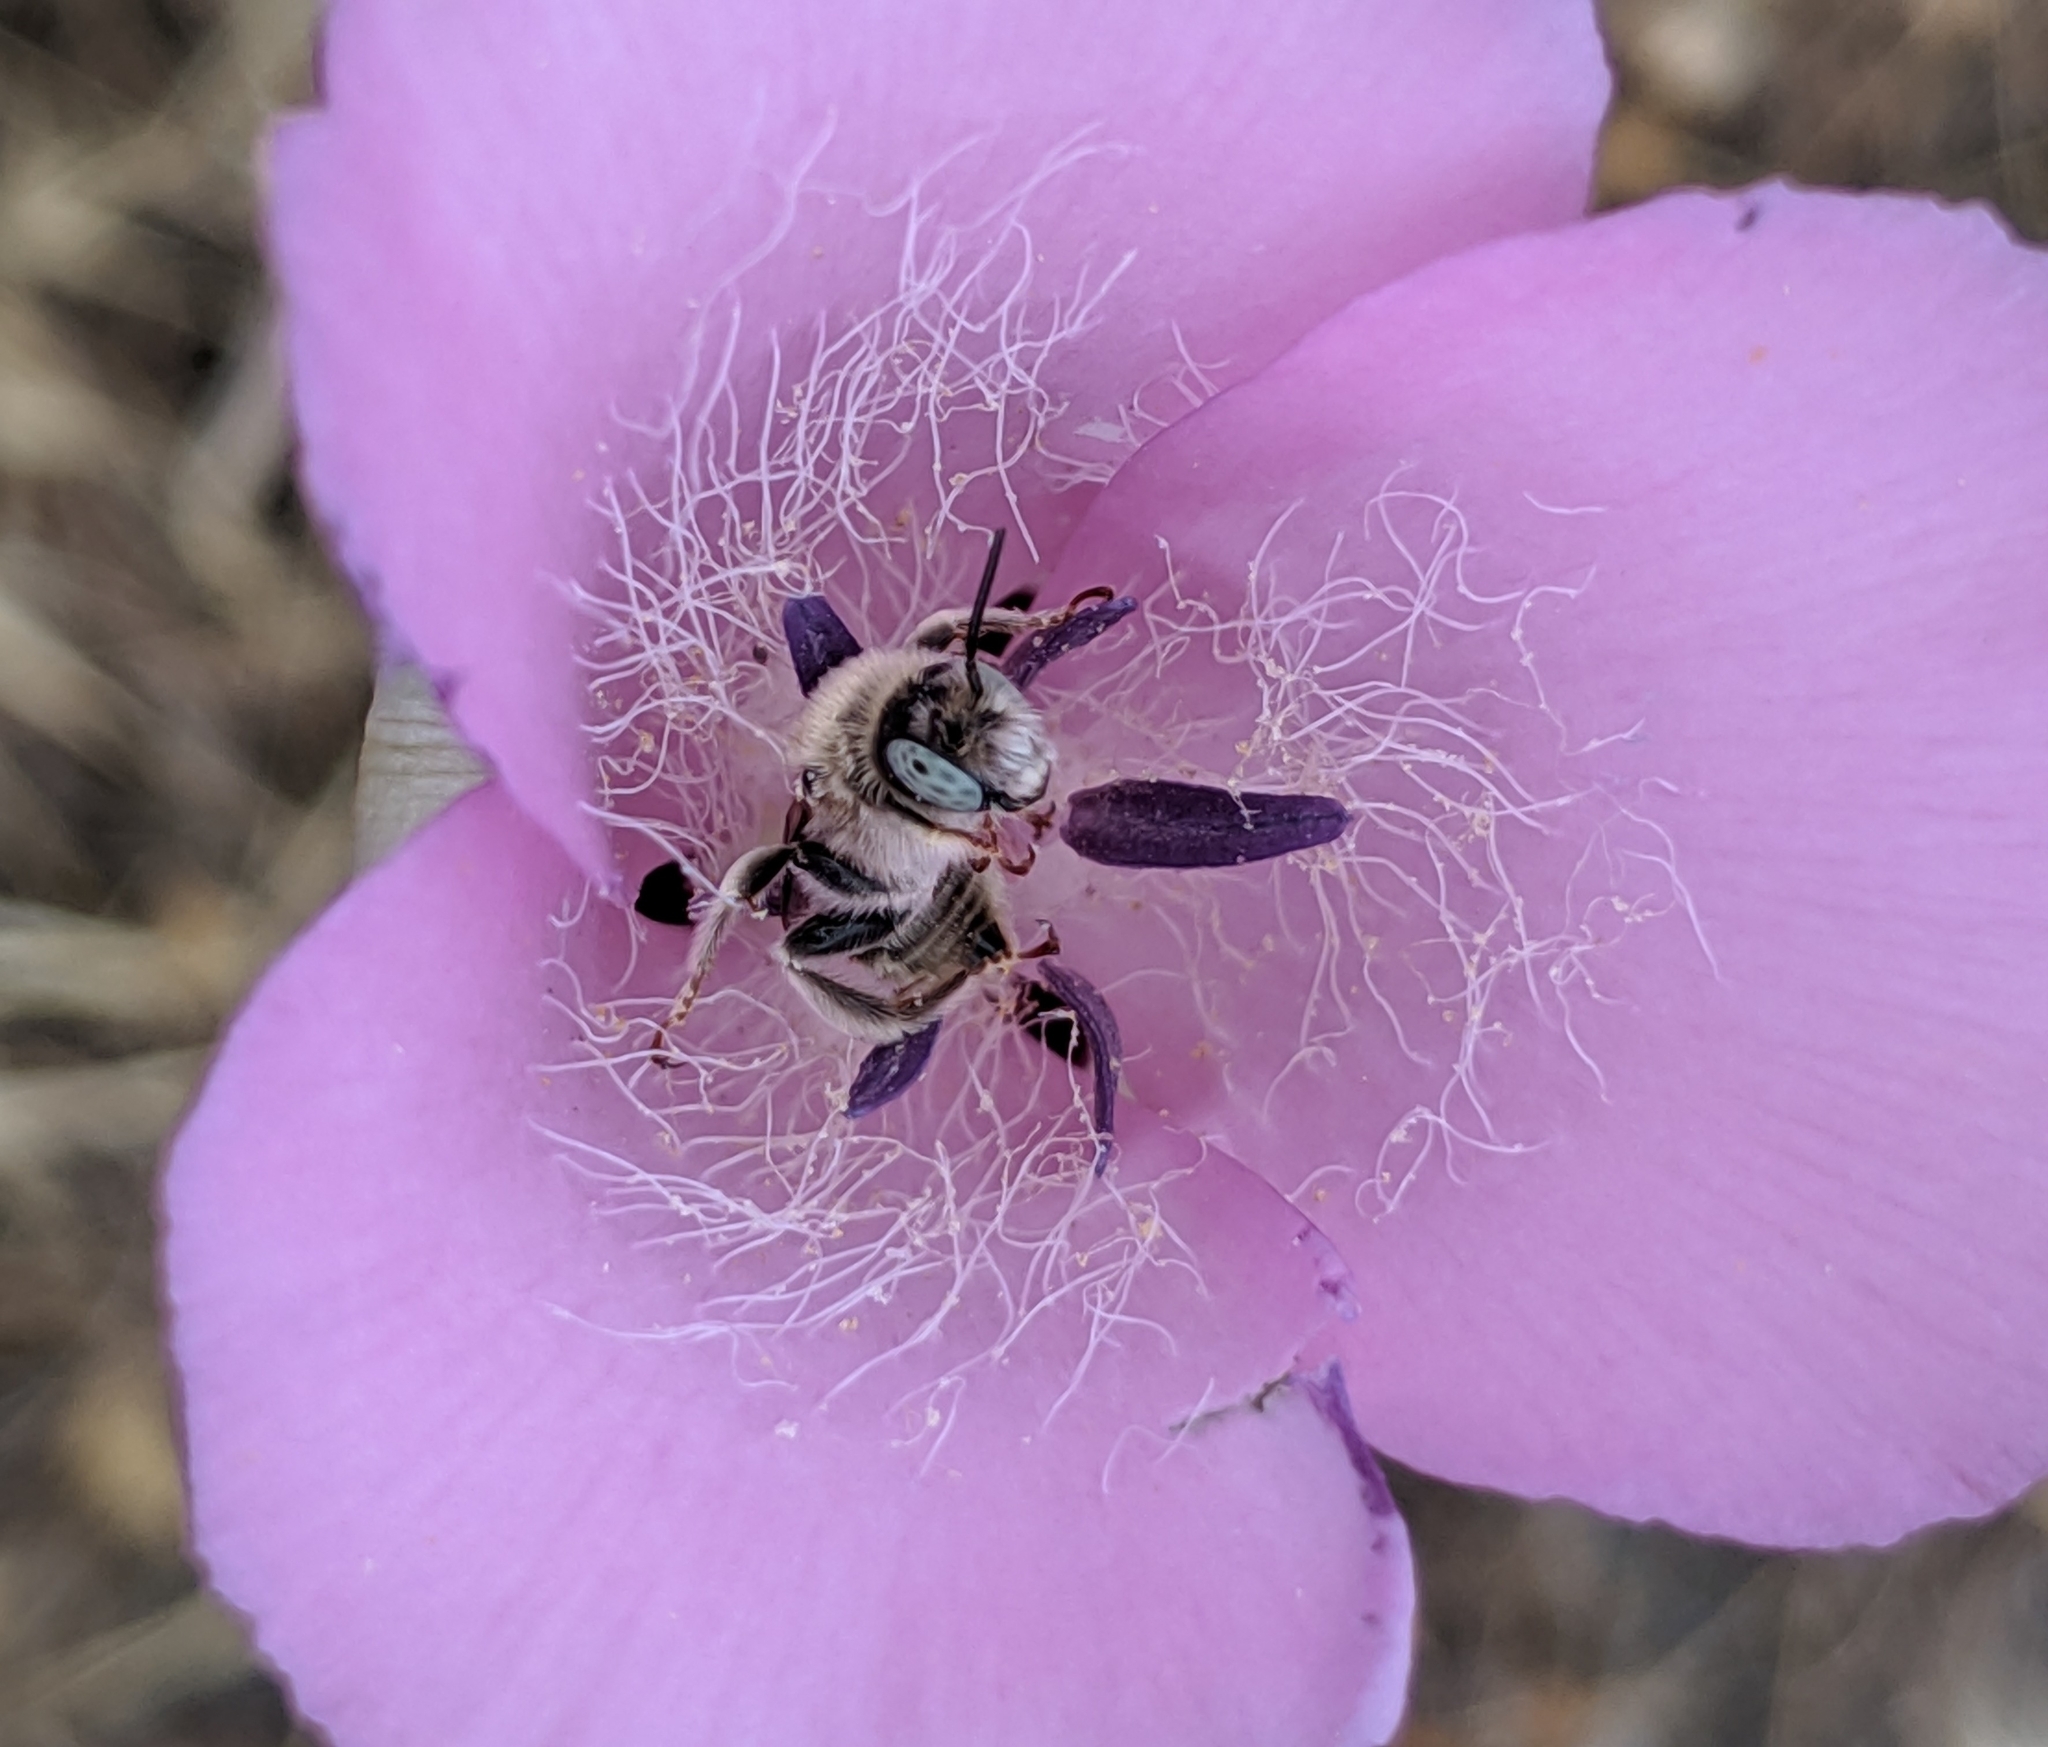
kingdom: Plantae
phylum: Tracheophyta
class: Liliopsida
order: Liliales
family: Liliaceae
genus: Calochortus
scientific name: Calochortus splendens
